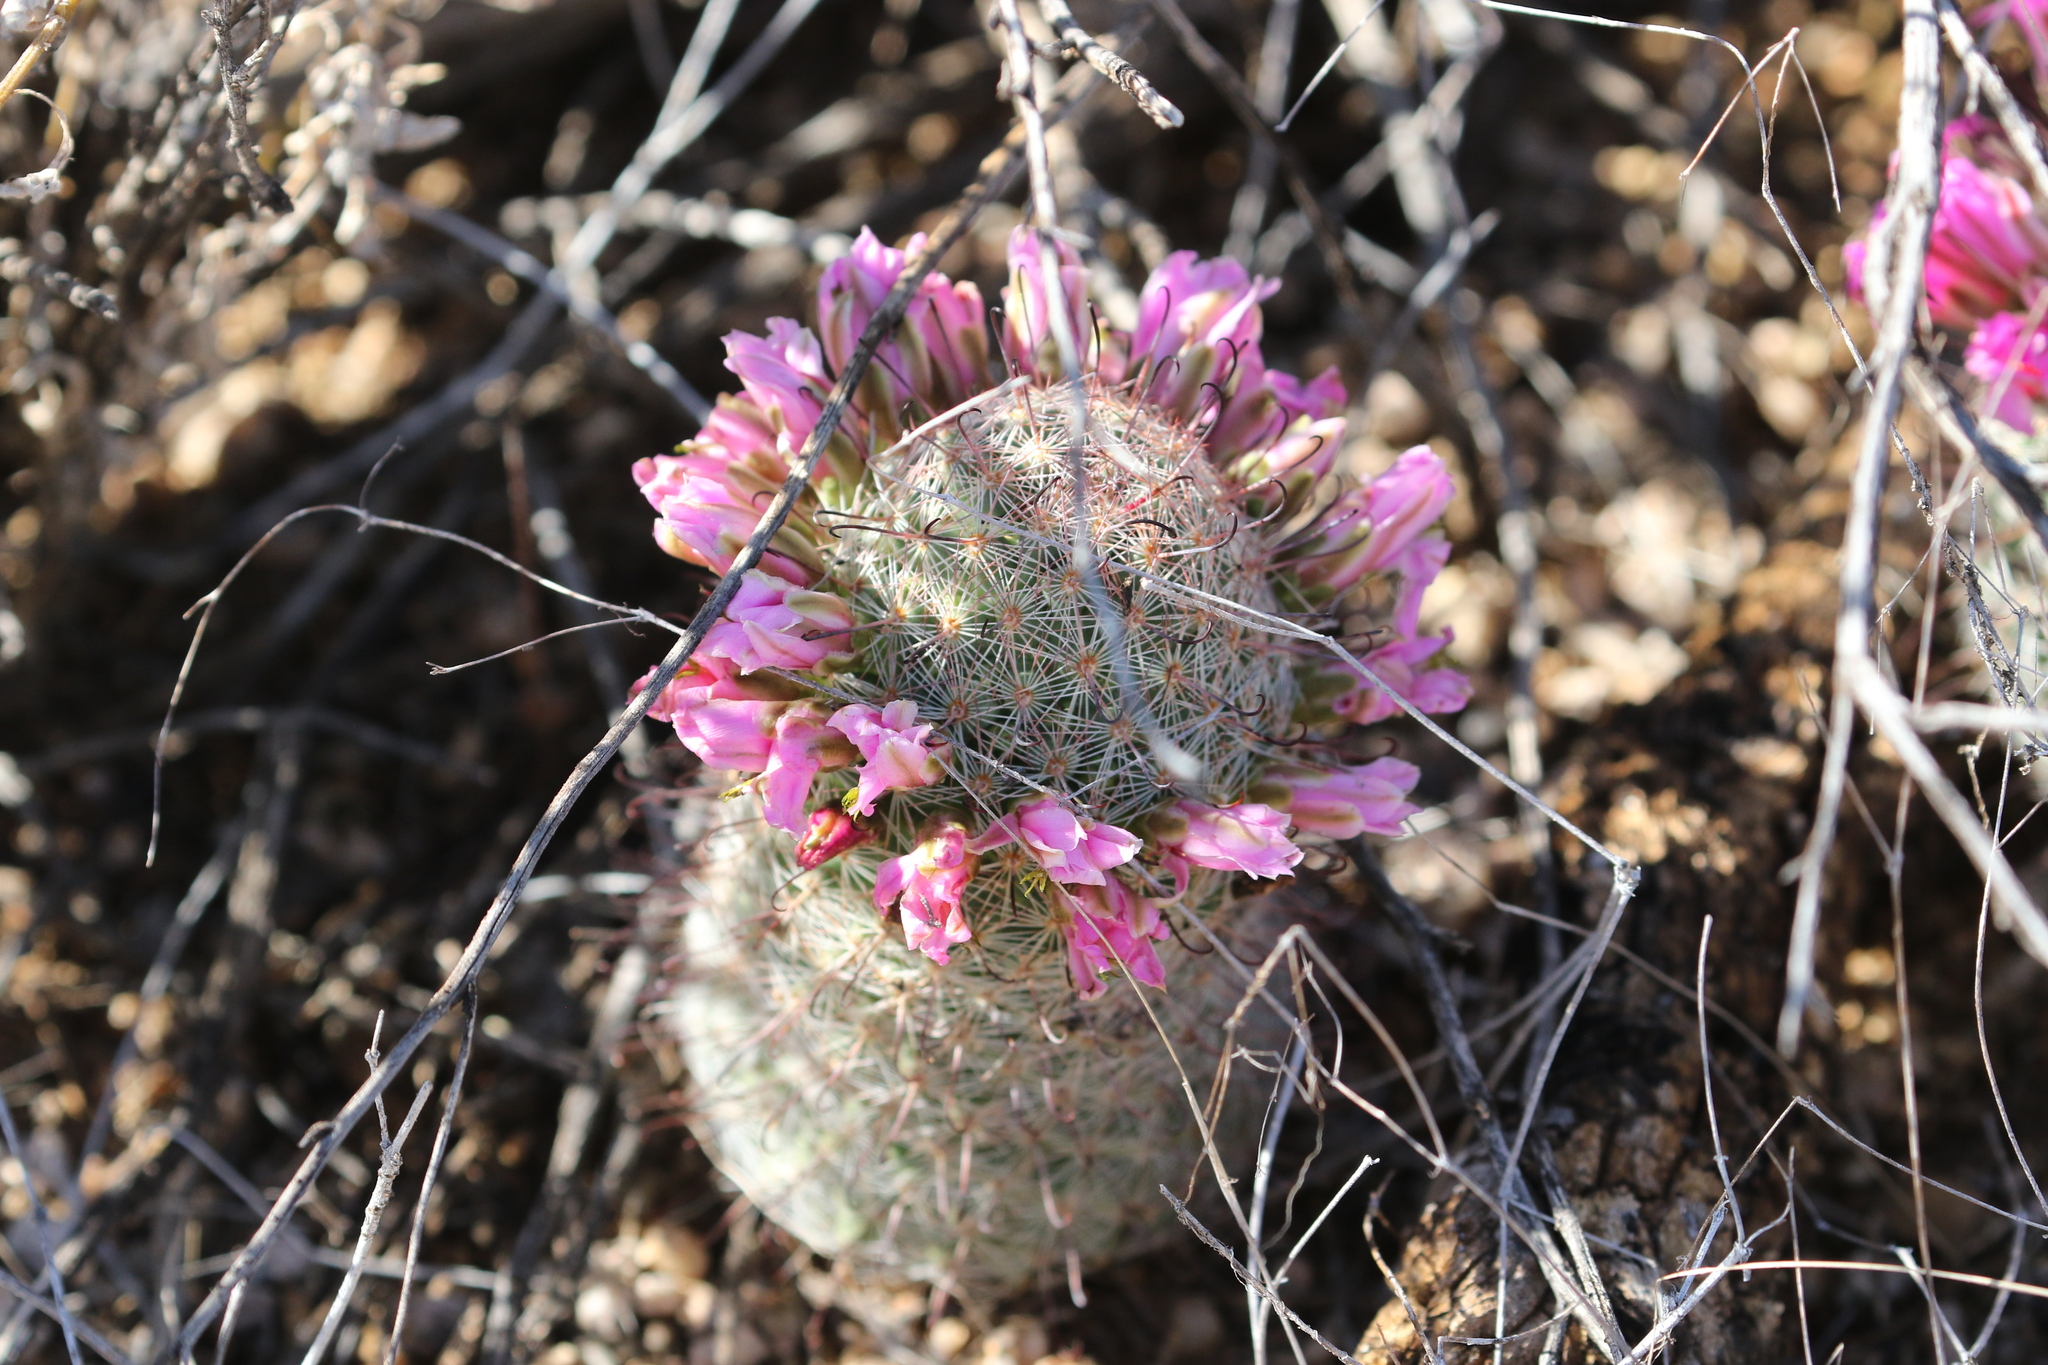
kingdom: Plantae
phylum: Tracheophyta
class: Magnoliopsida
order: Caryophyllales
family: Cactaceae
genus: Cochemiea
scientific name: Cochemiea grahamii
